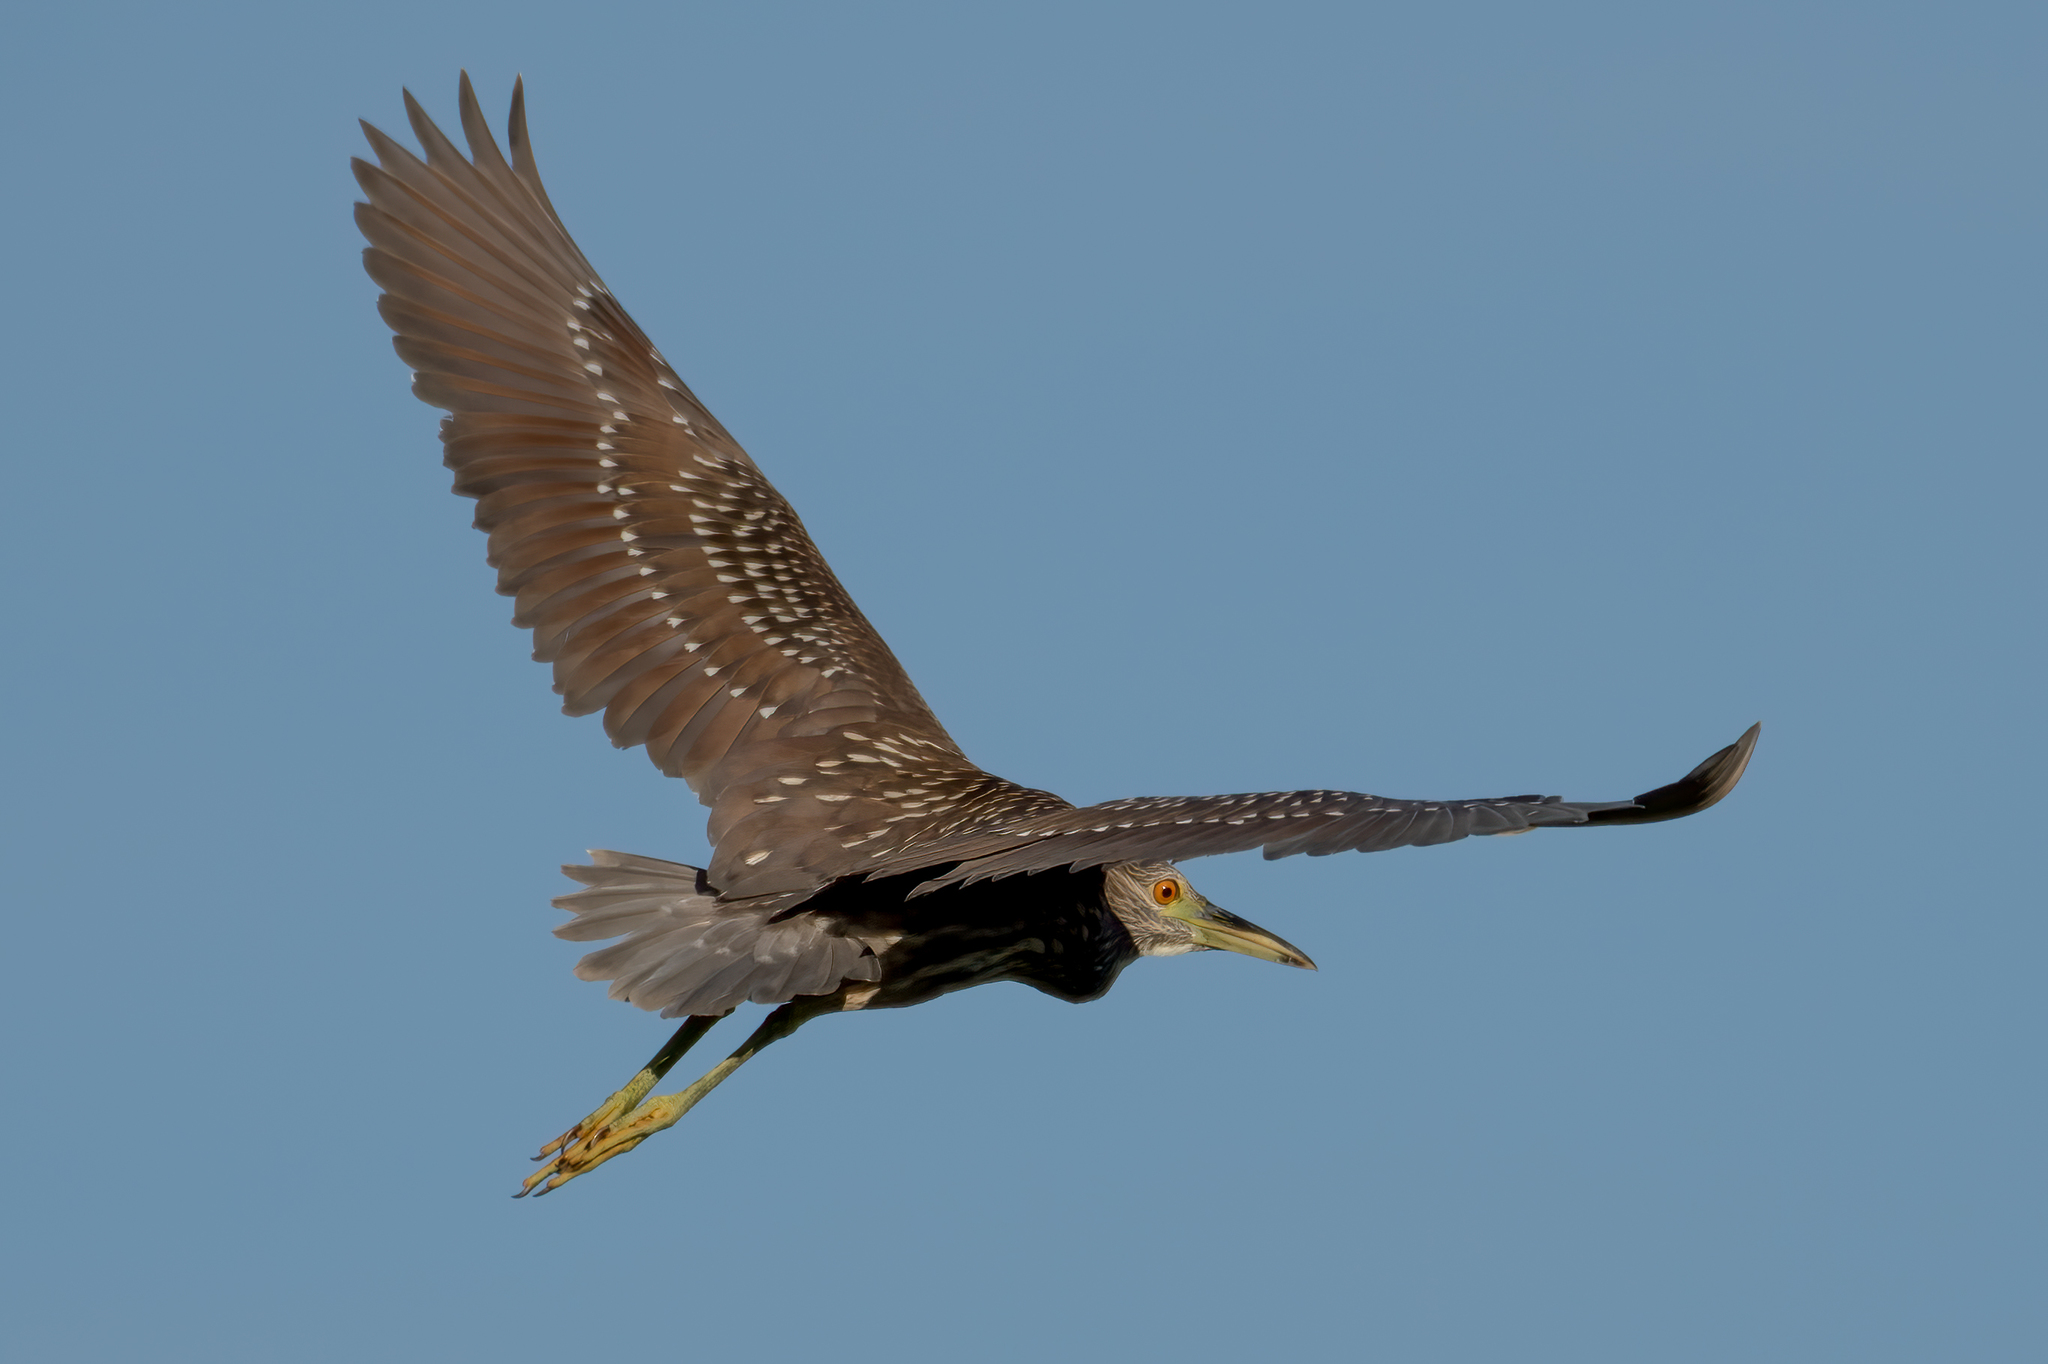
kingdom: Animalia
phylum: Chordata
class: Aves
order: Pelecaniformes
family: Ardeidae
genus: Nycticorax
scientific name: Nycticorax nycticorax
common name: Black-crowned night heron
